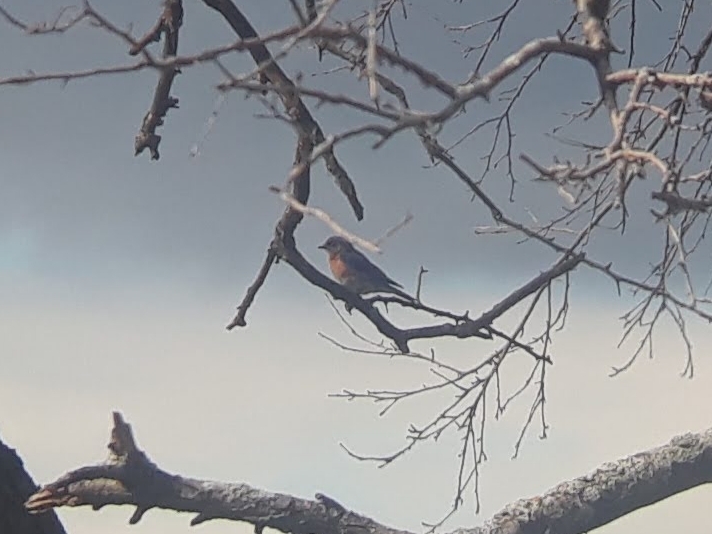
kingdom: Animalia
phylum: Chordata
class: Aves
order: Passeriformes
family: Turdidae
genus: Sialia
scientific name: Sialia sialis
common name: Eastern bluebird
